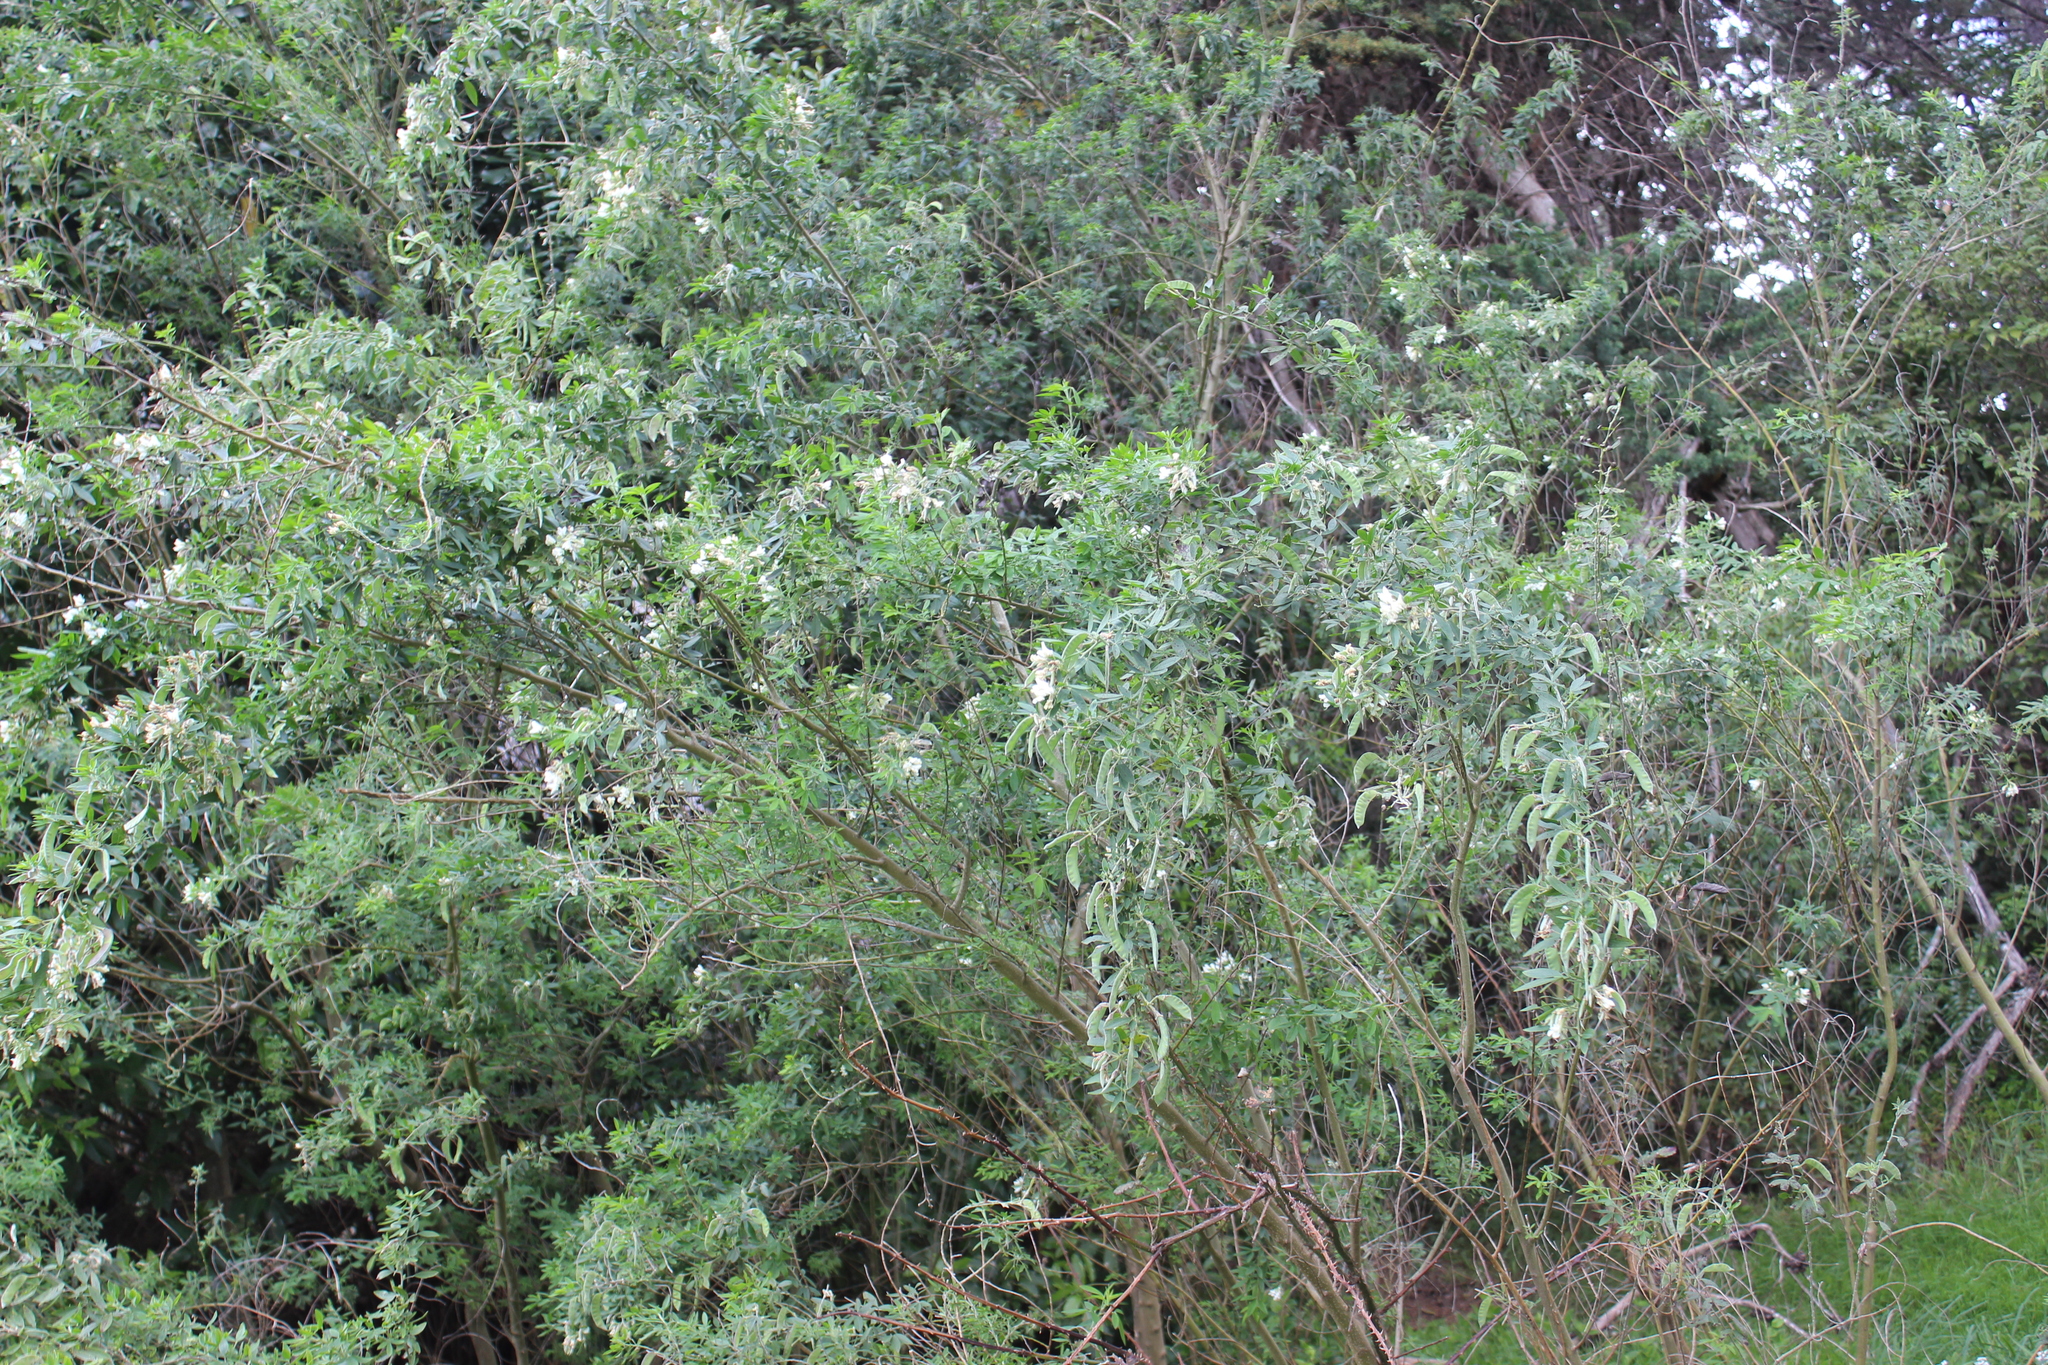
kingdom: Plantae
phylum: Tracheophyta
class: Magnoliopsida
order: Fabales
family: Fabaceae
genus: Chamaecytisus
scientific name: Chamaecytisus prolifer
